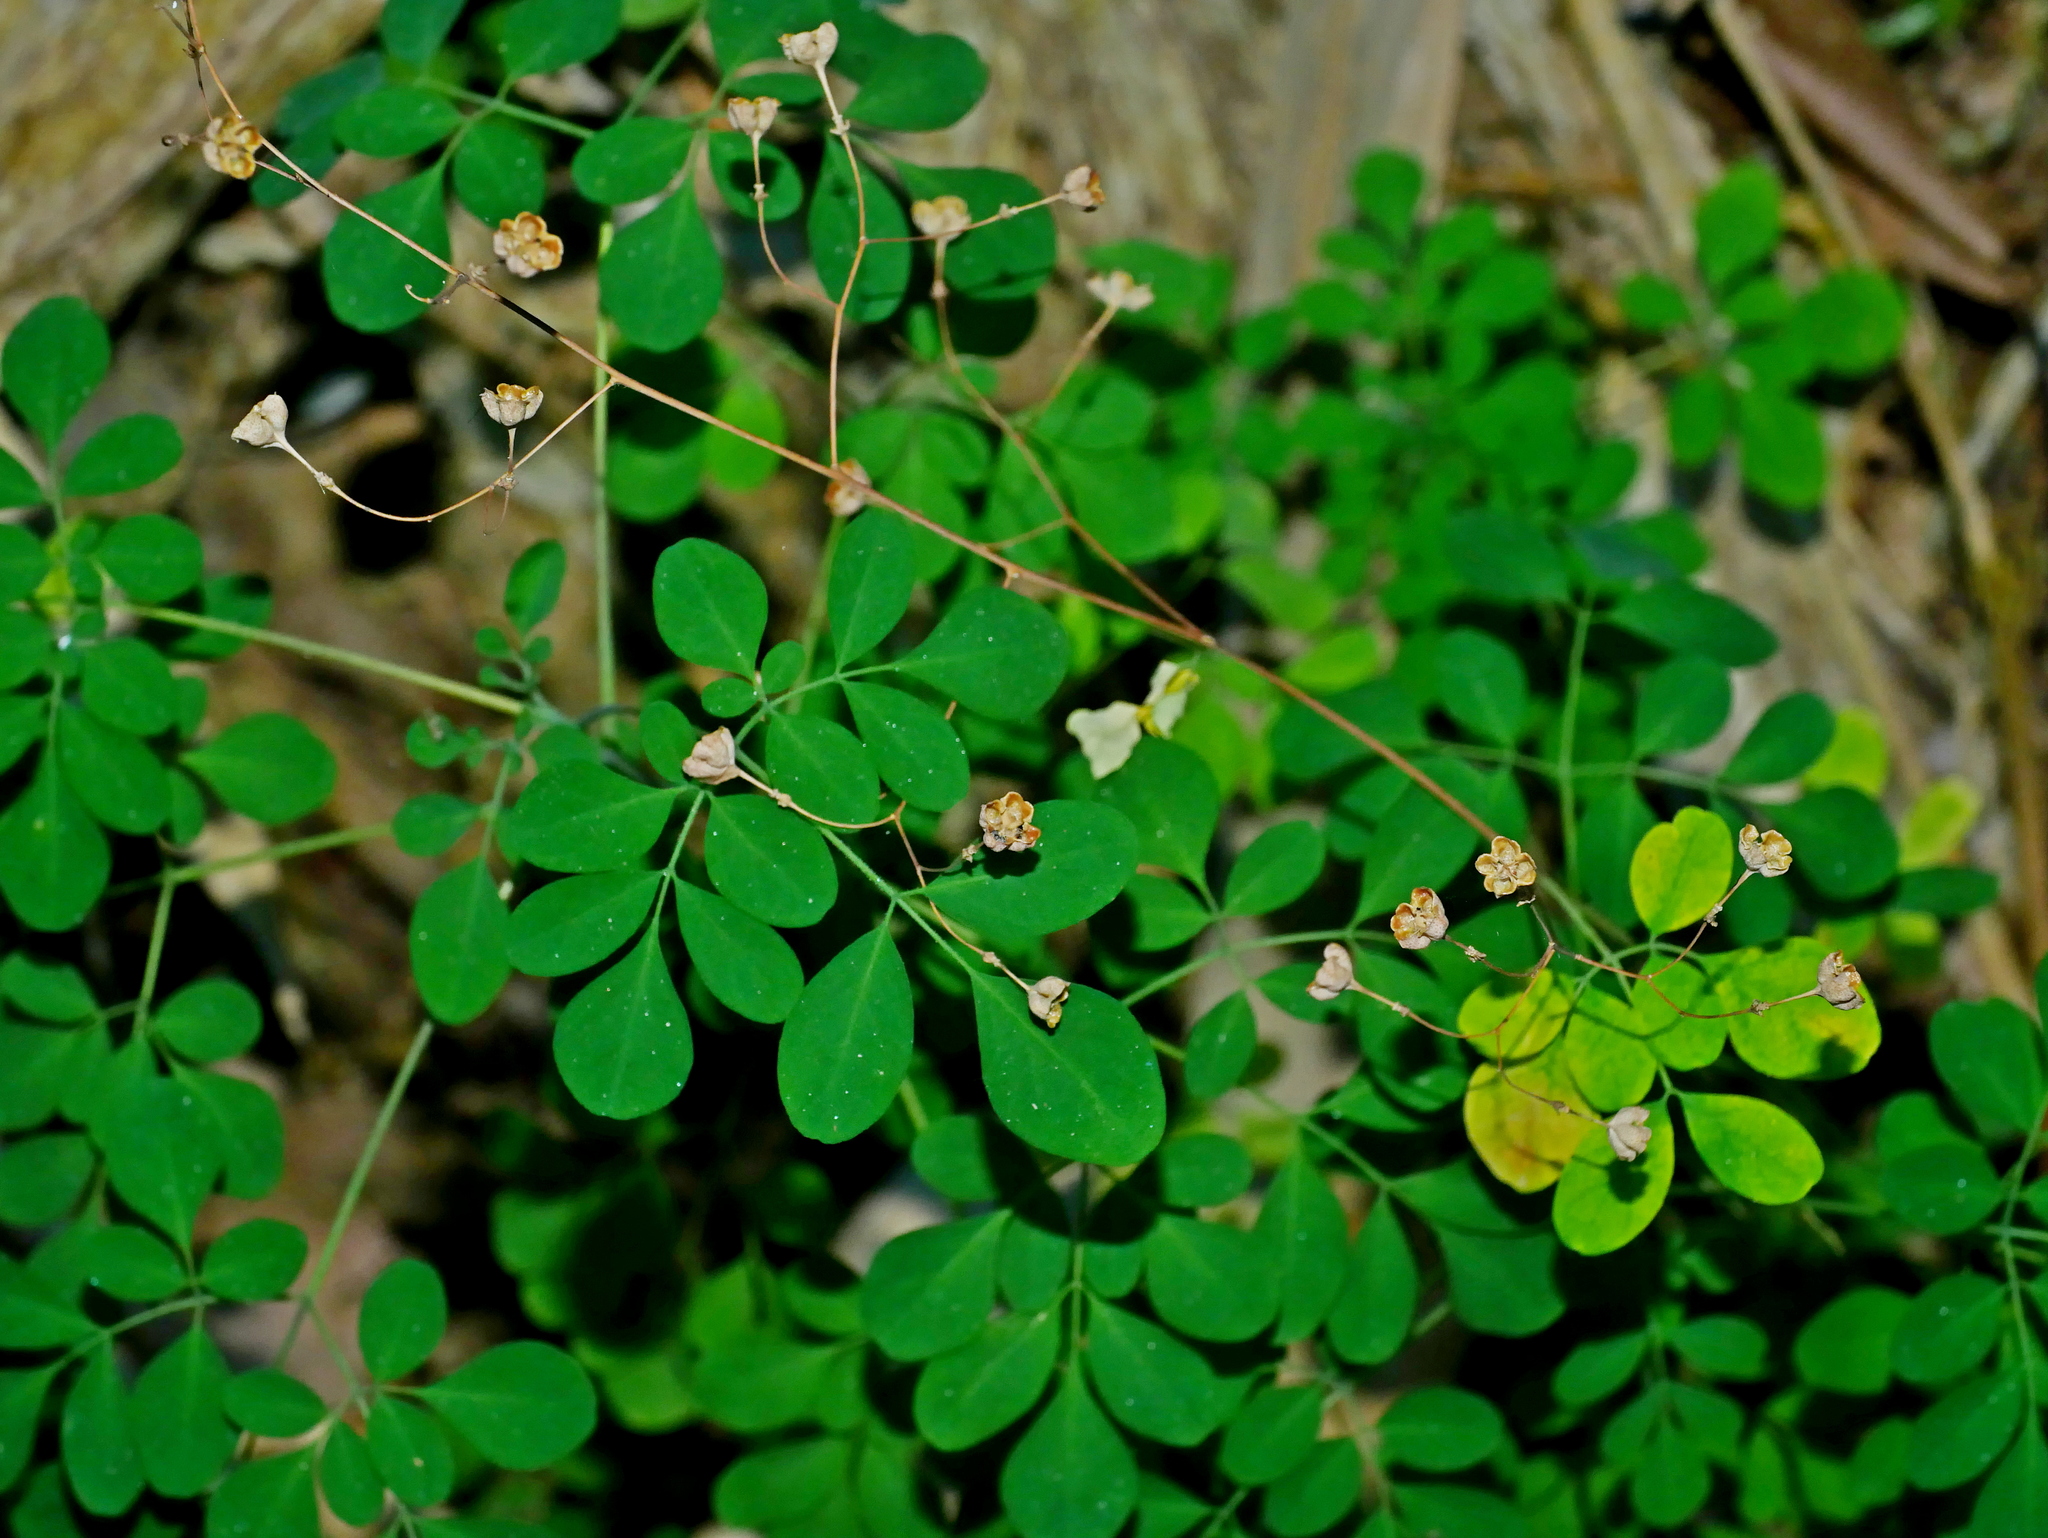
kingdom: Plantae
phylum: Tracheophyta
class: Magnoliopsida
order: Sapindales
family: Rutaceae
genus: Boenninghausenia
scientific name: Boenninghausenia albiflora
